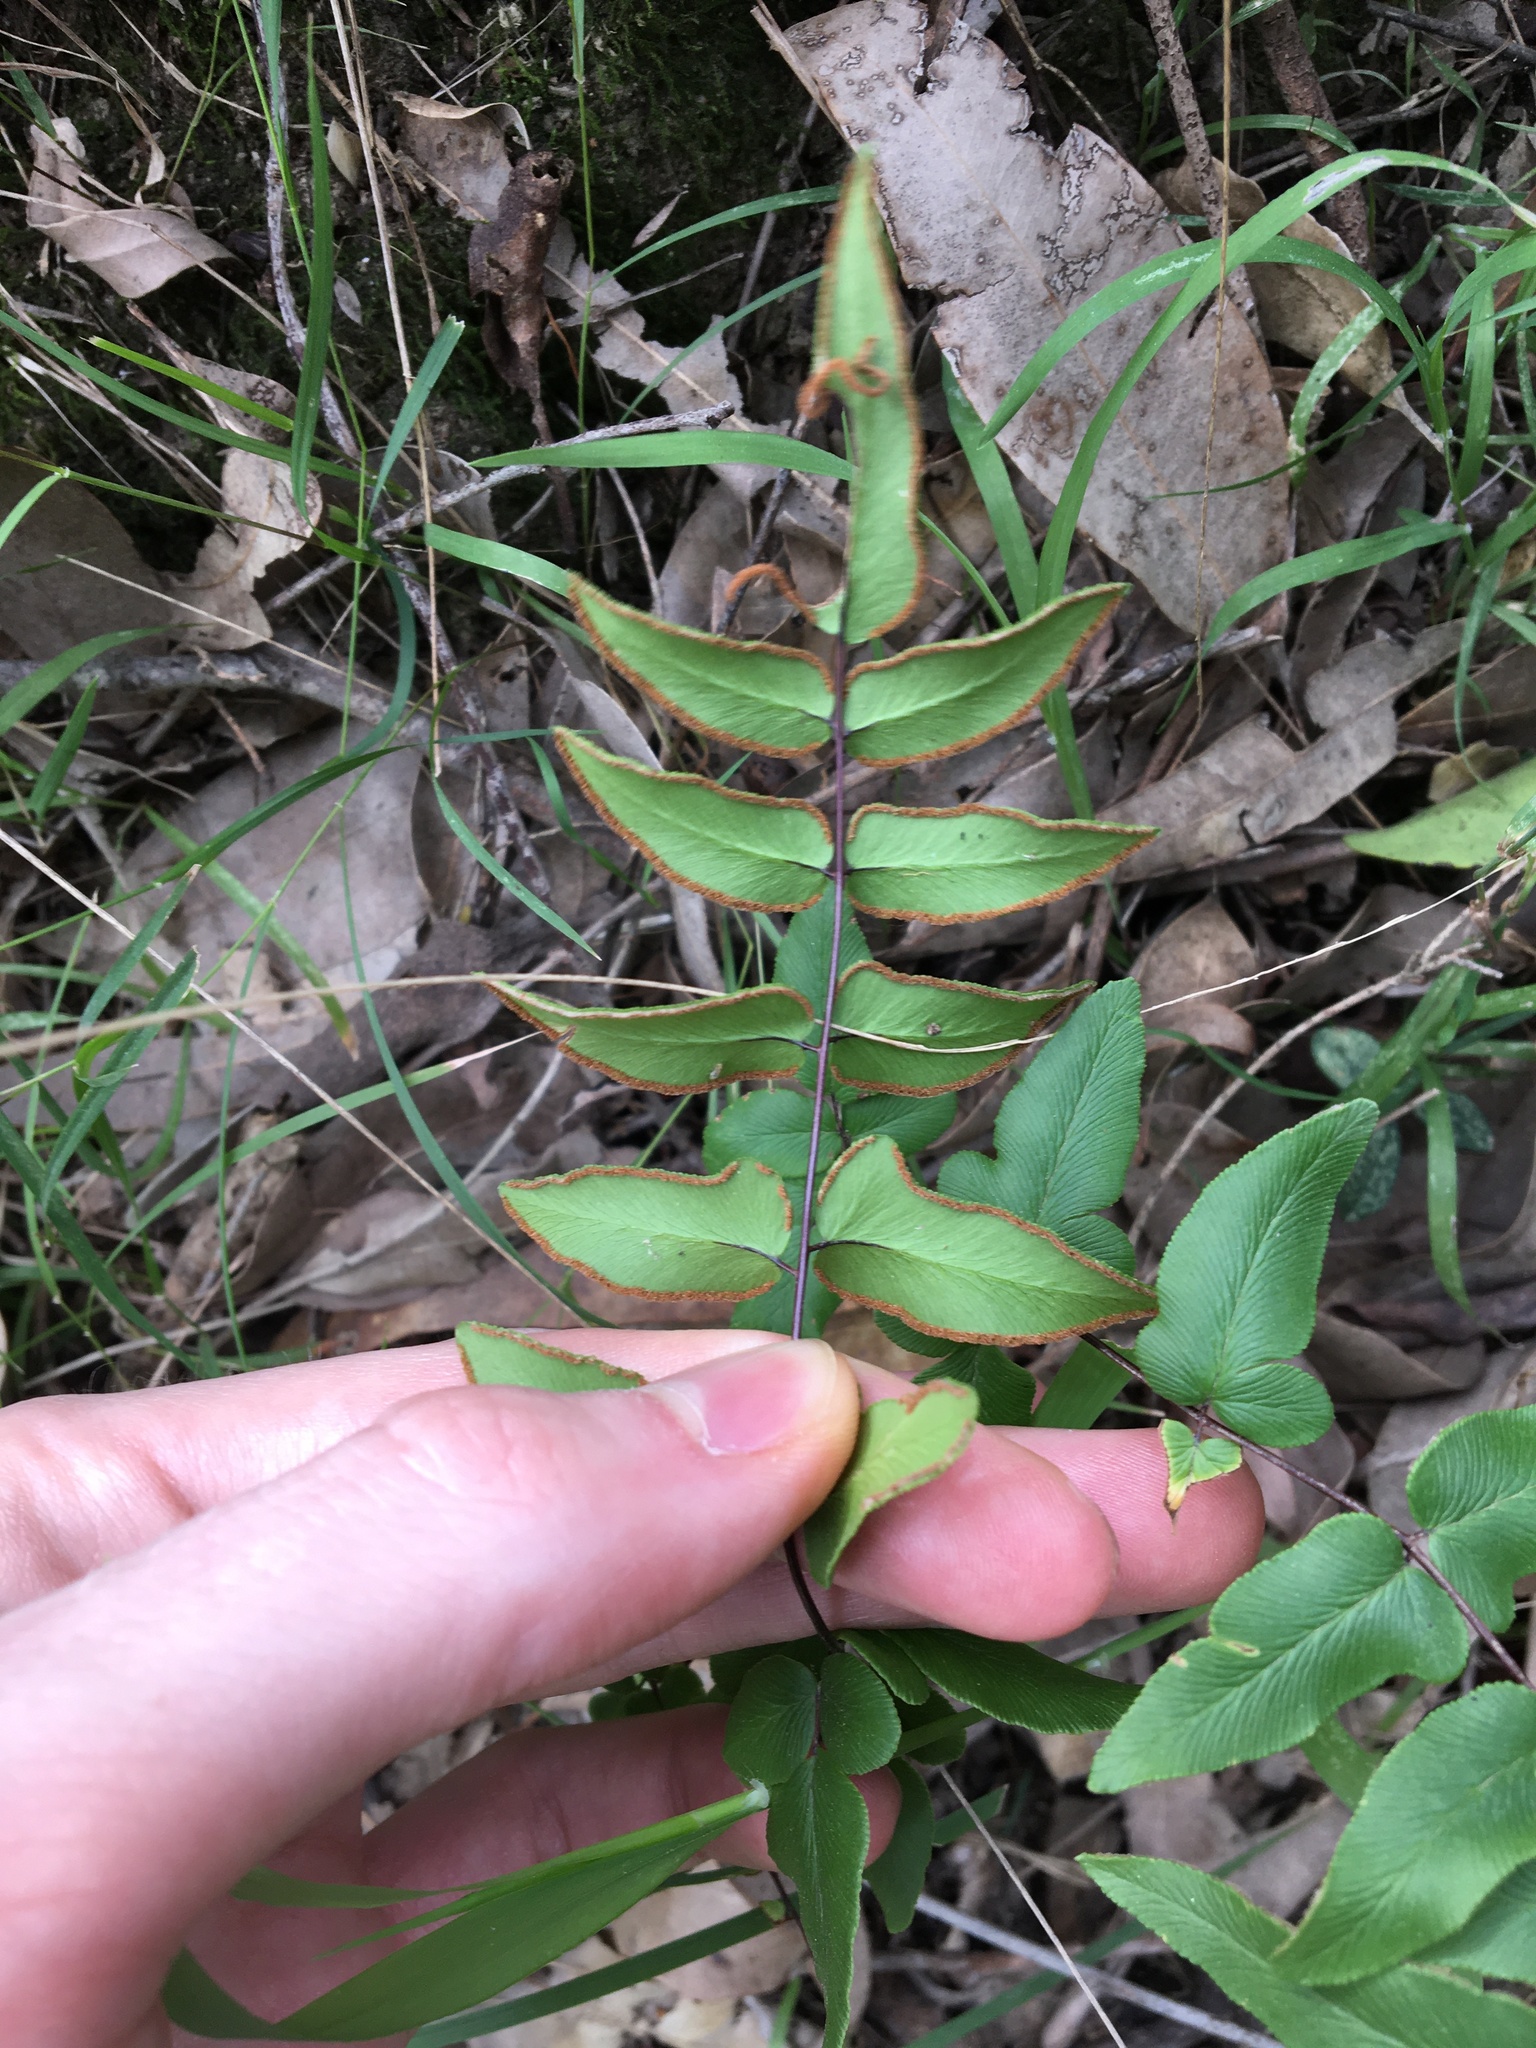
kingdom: Plantae
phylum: Tracheophyta
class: Polypodiopsida
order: Polypodiales
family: Pteridaceae
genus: Cheilanthes
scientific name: Cheilanthes viridis
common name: Green cliffbrake
